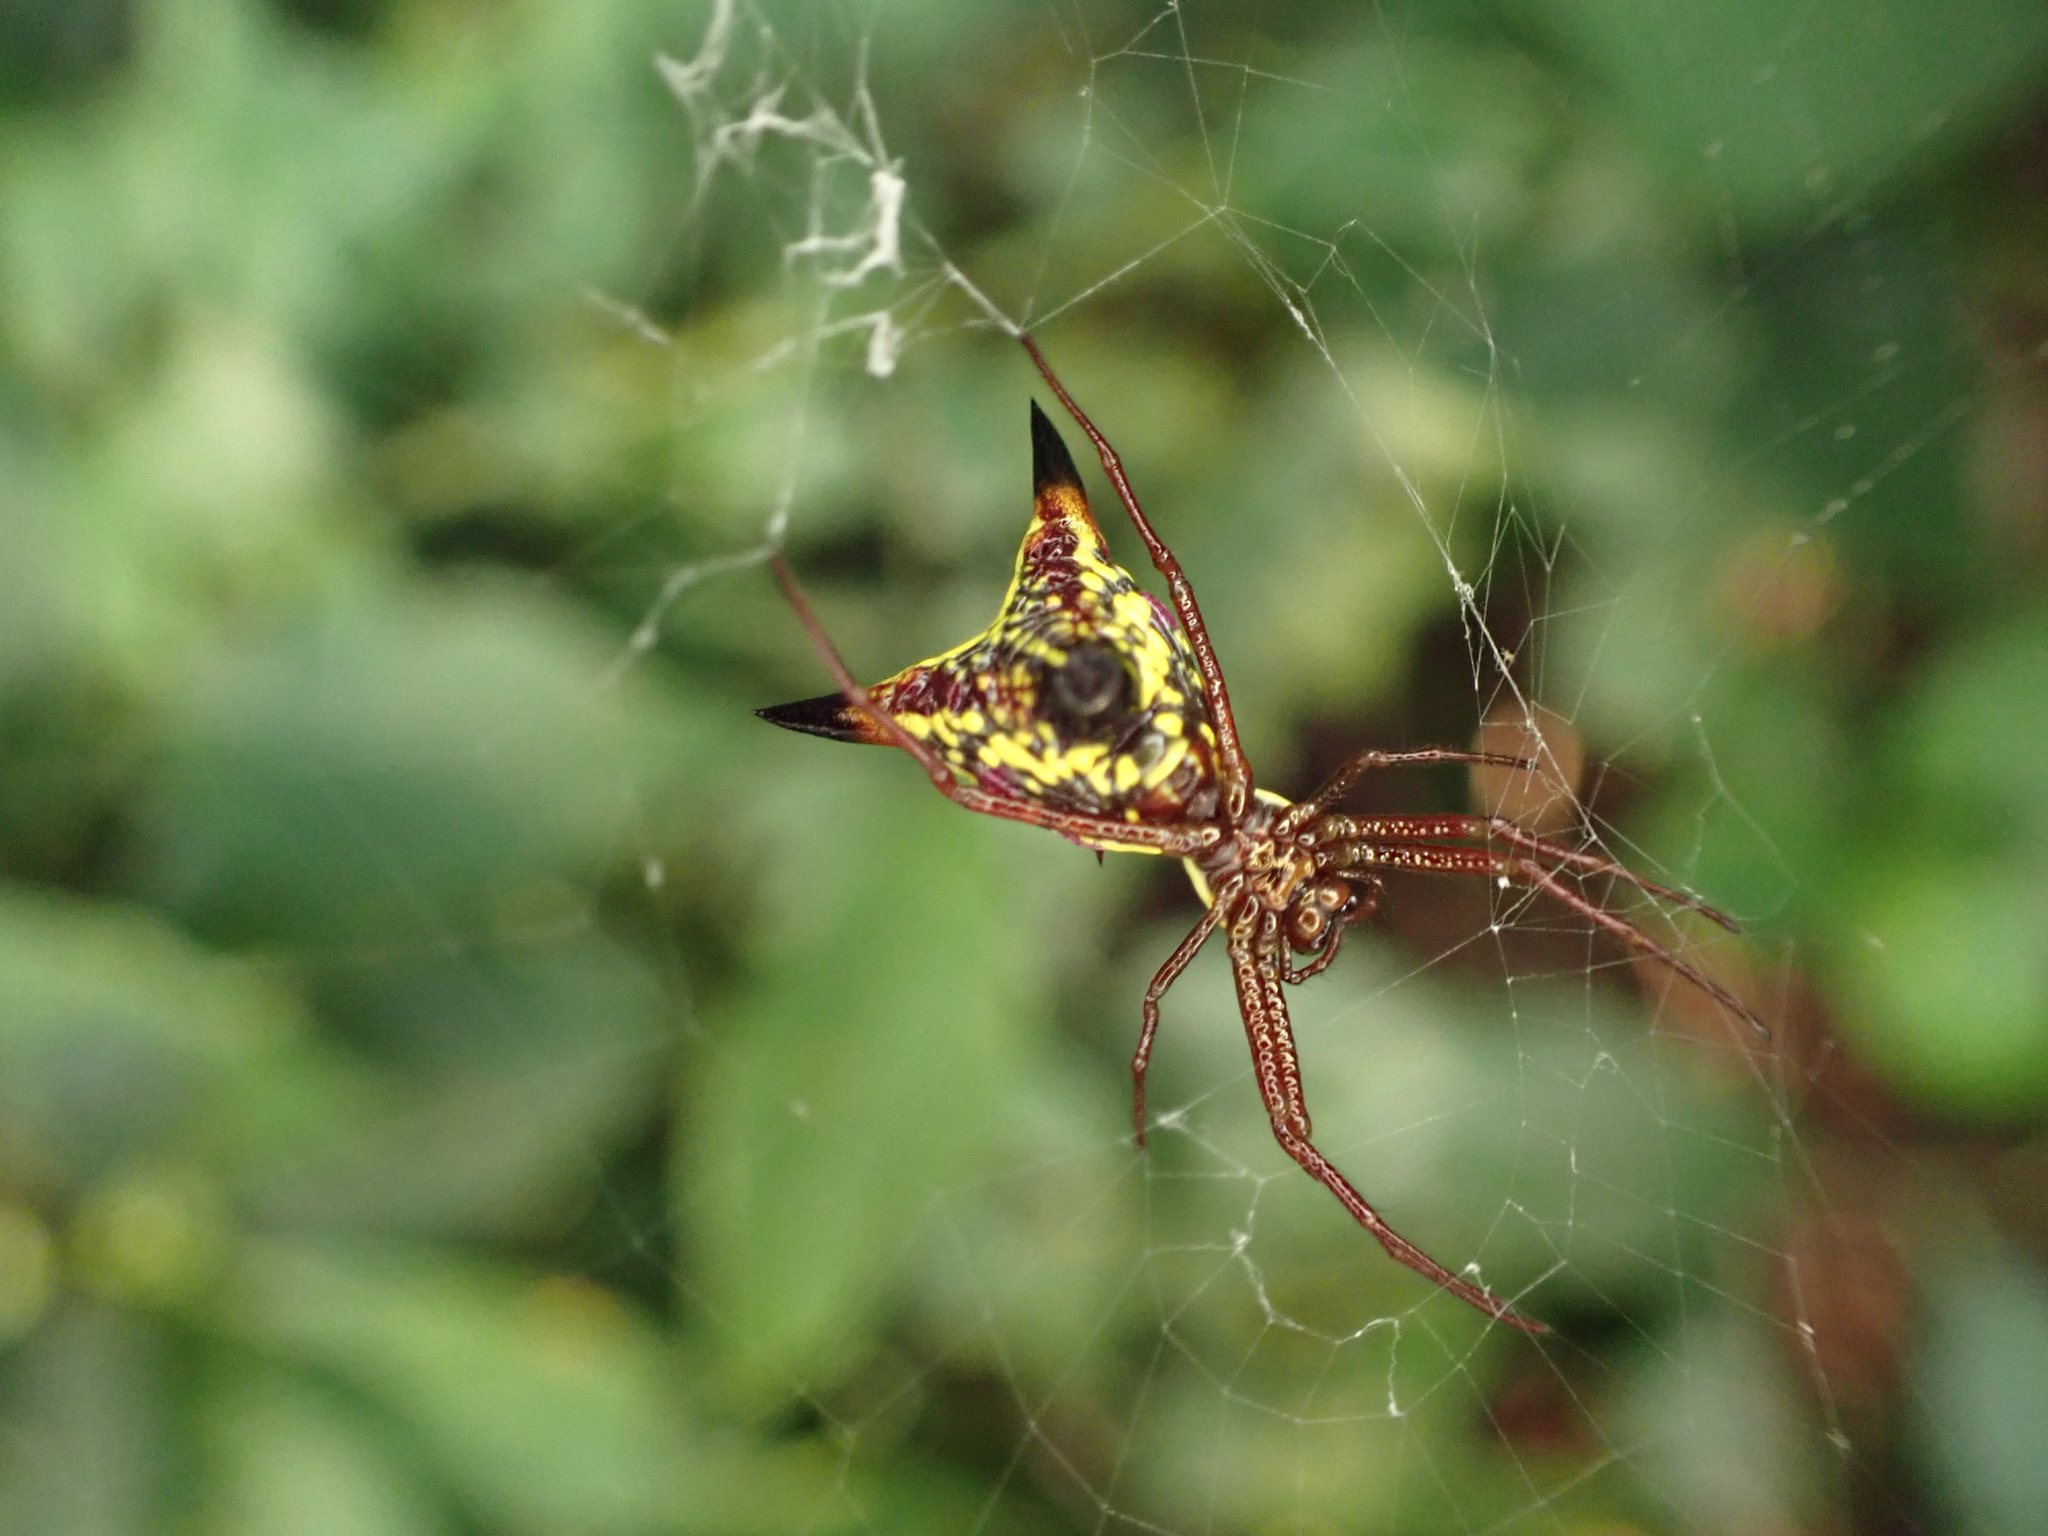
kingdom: Animalia
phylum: Arthropoda
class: Arachnida
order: Araneae
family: Araneidae
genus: Micrathena
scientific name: Micrathena sagittata
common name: Orb weavers
